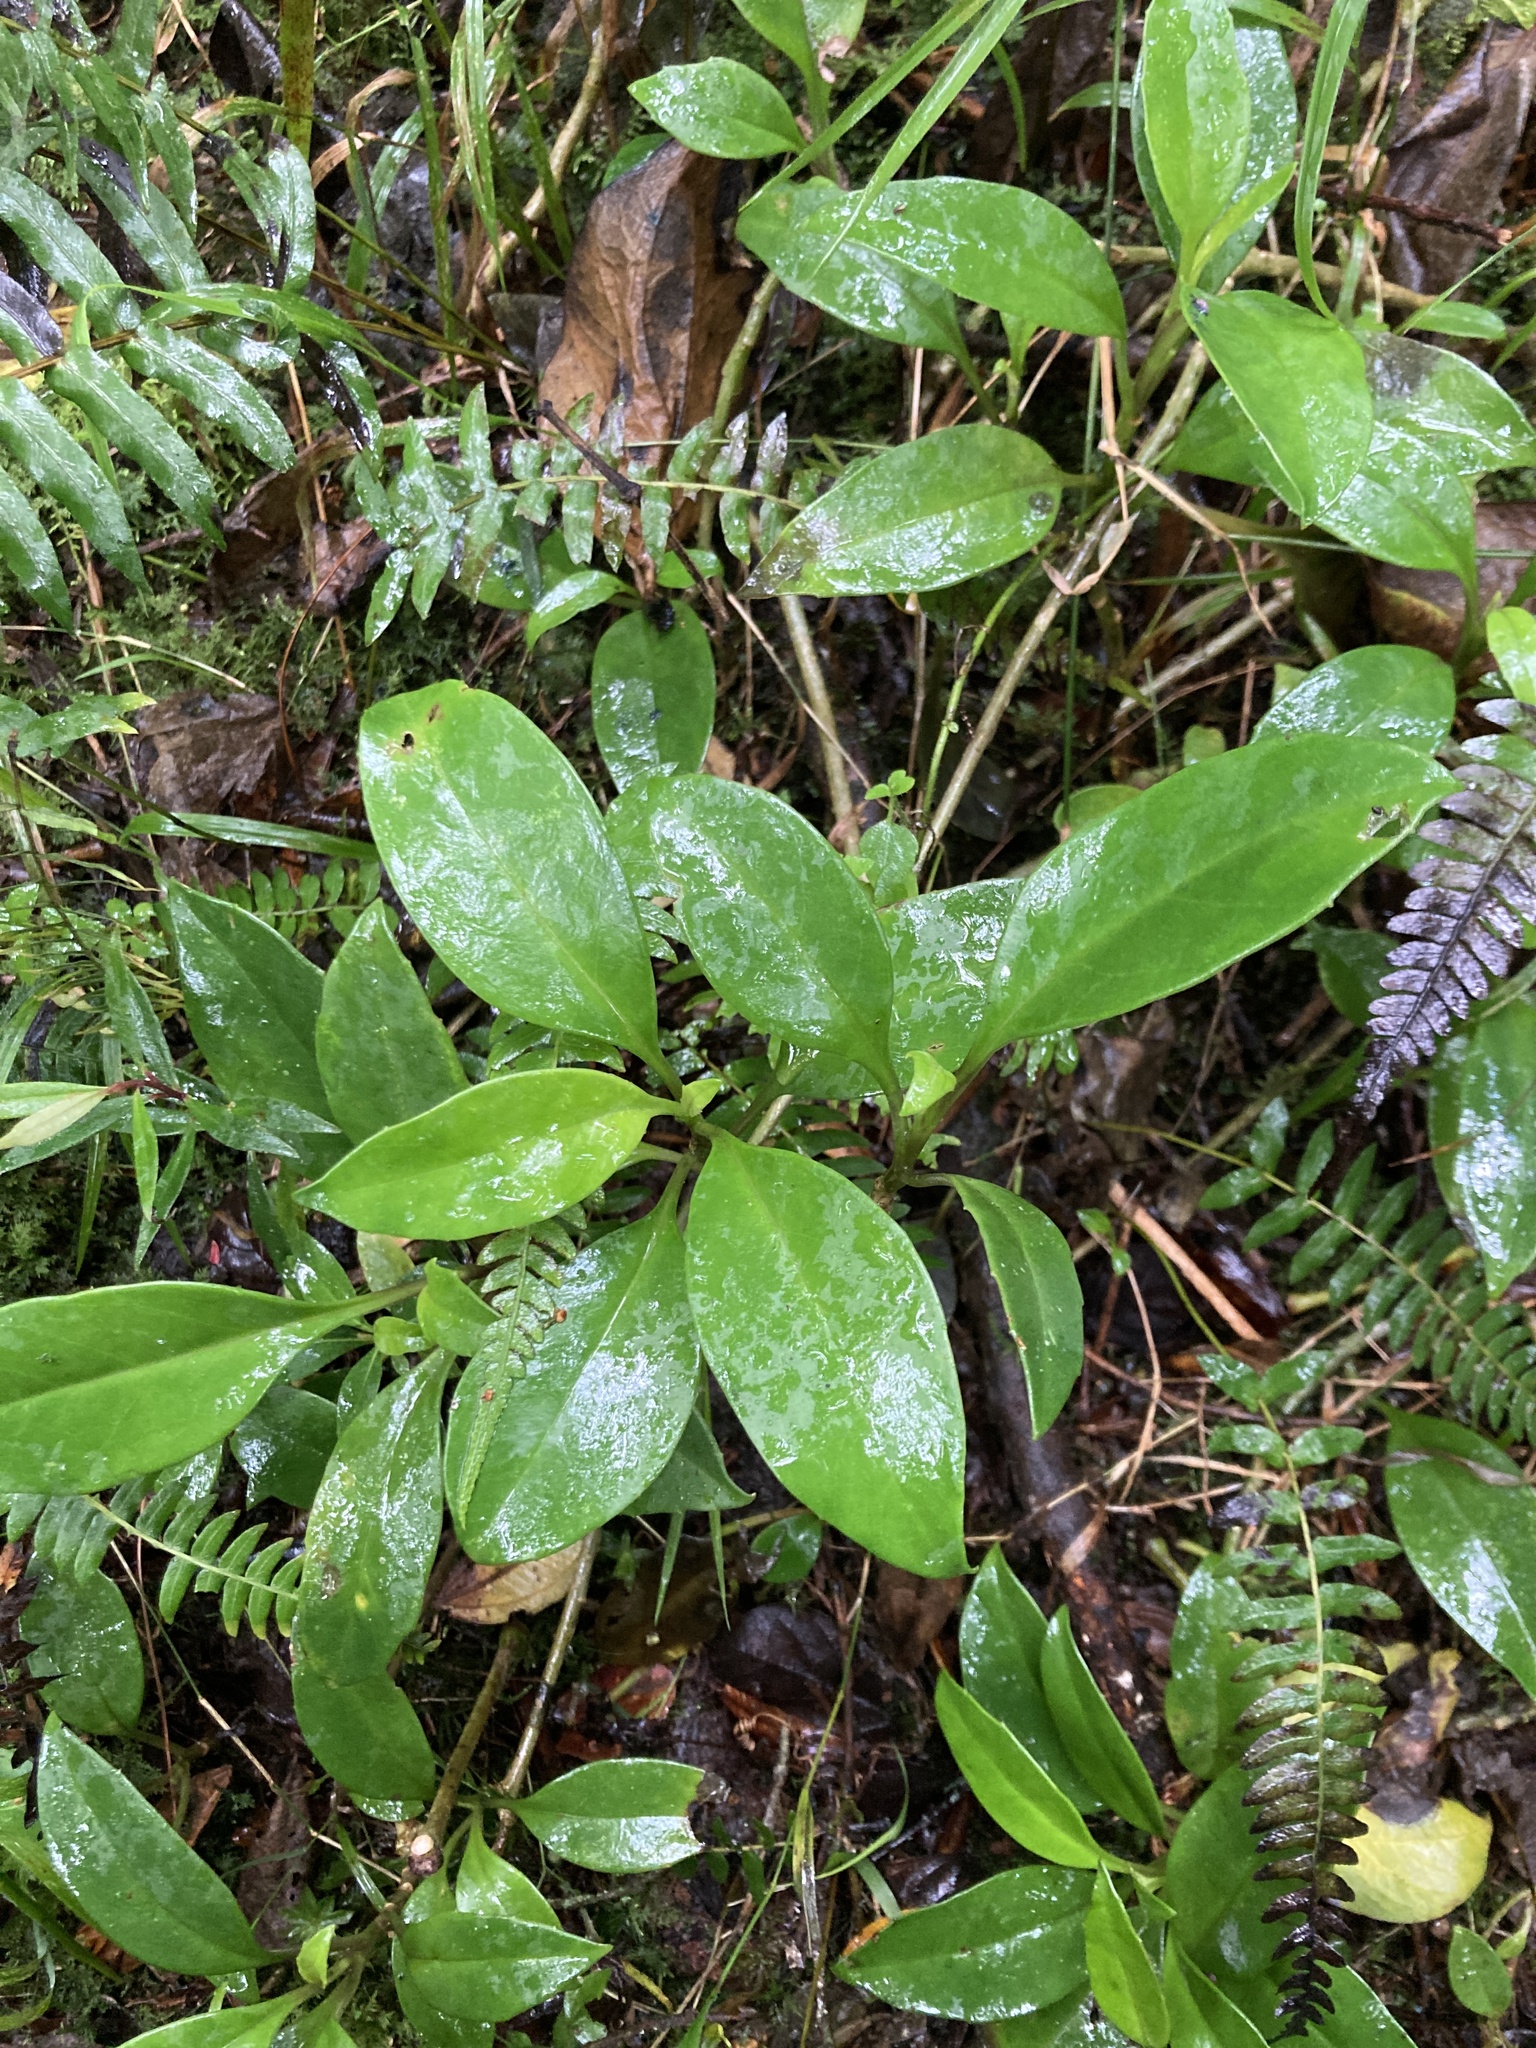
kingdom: Plantae
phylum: Tracheophyta
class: Magnoliopsida
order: Dipsacales
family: Caprifoliaceae
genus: Valeriana
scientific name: Valeriana clematitis
